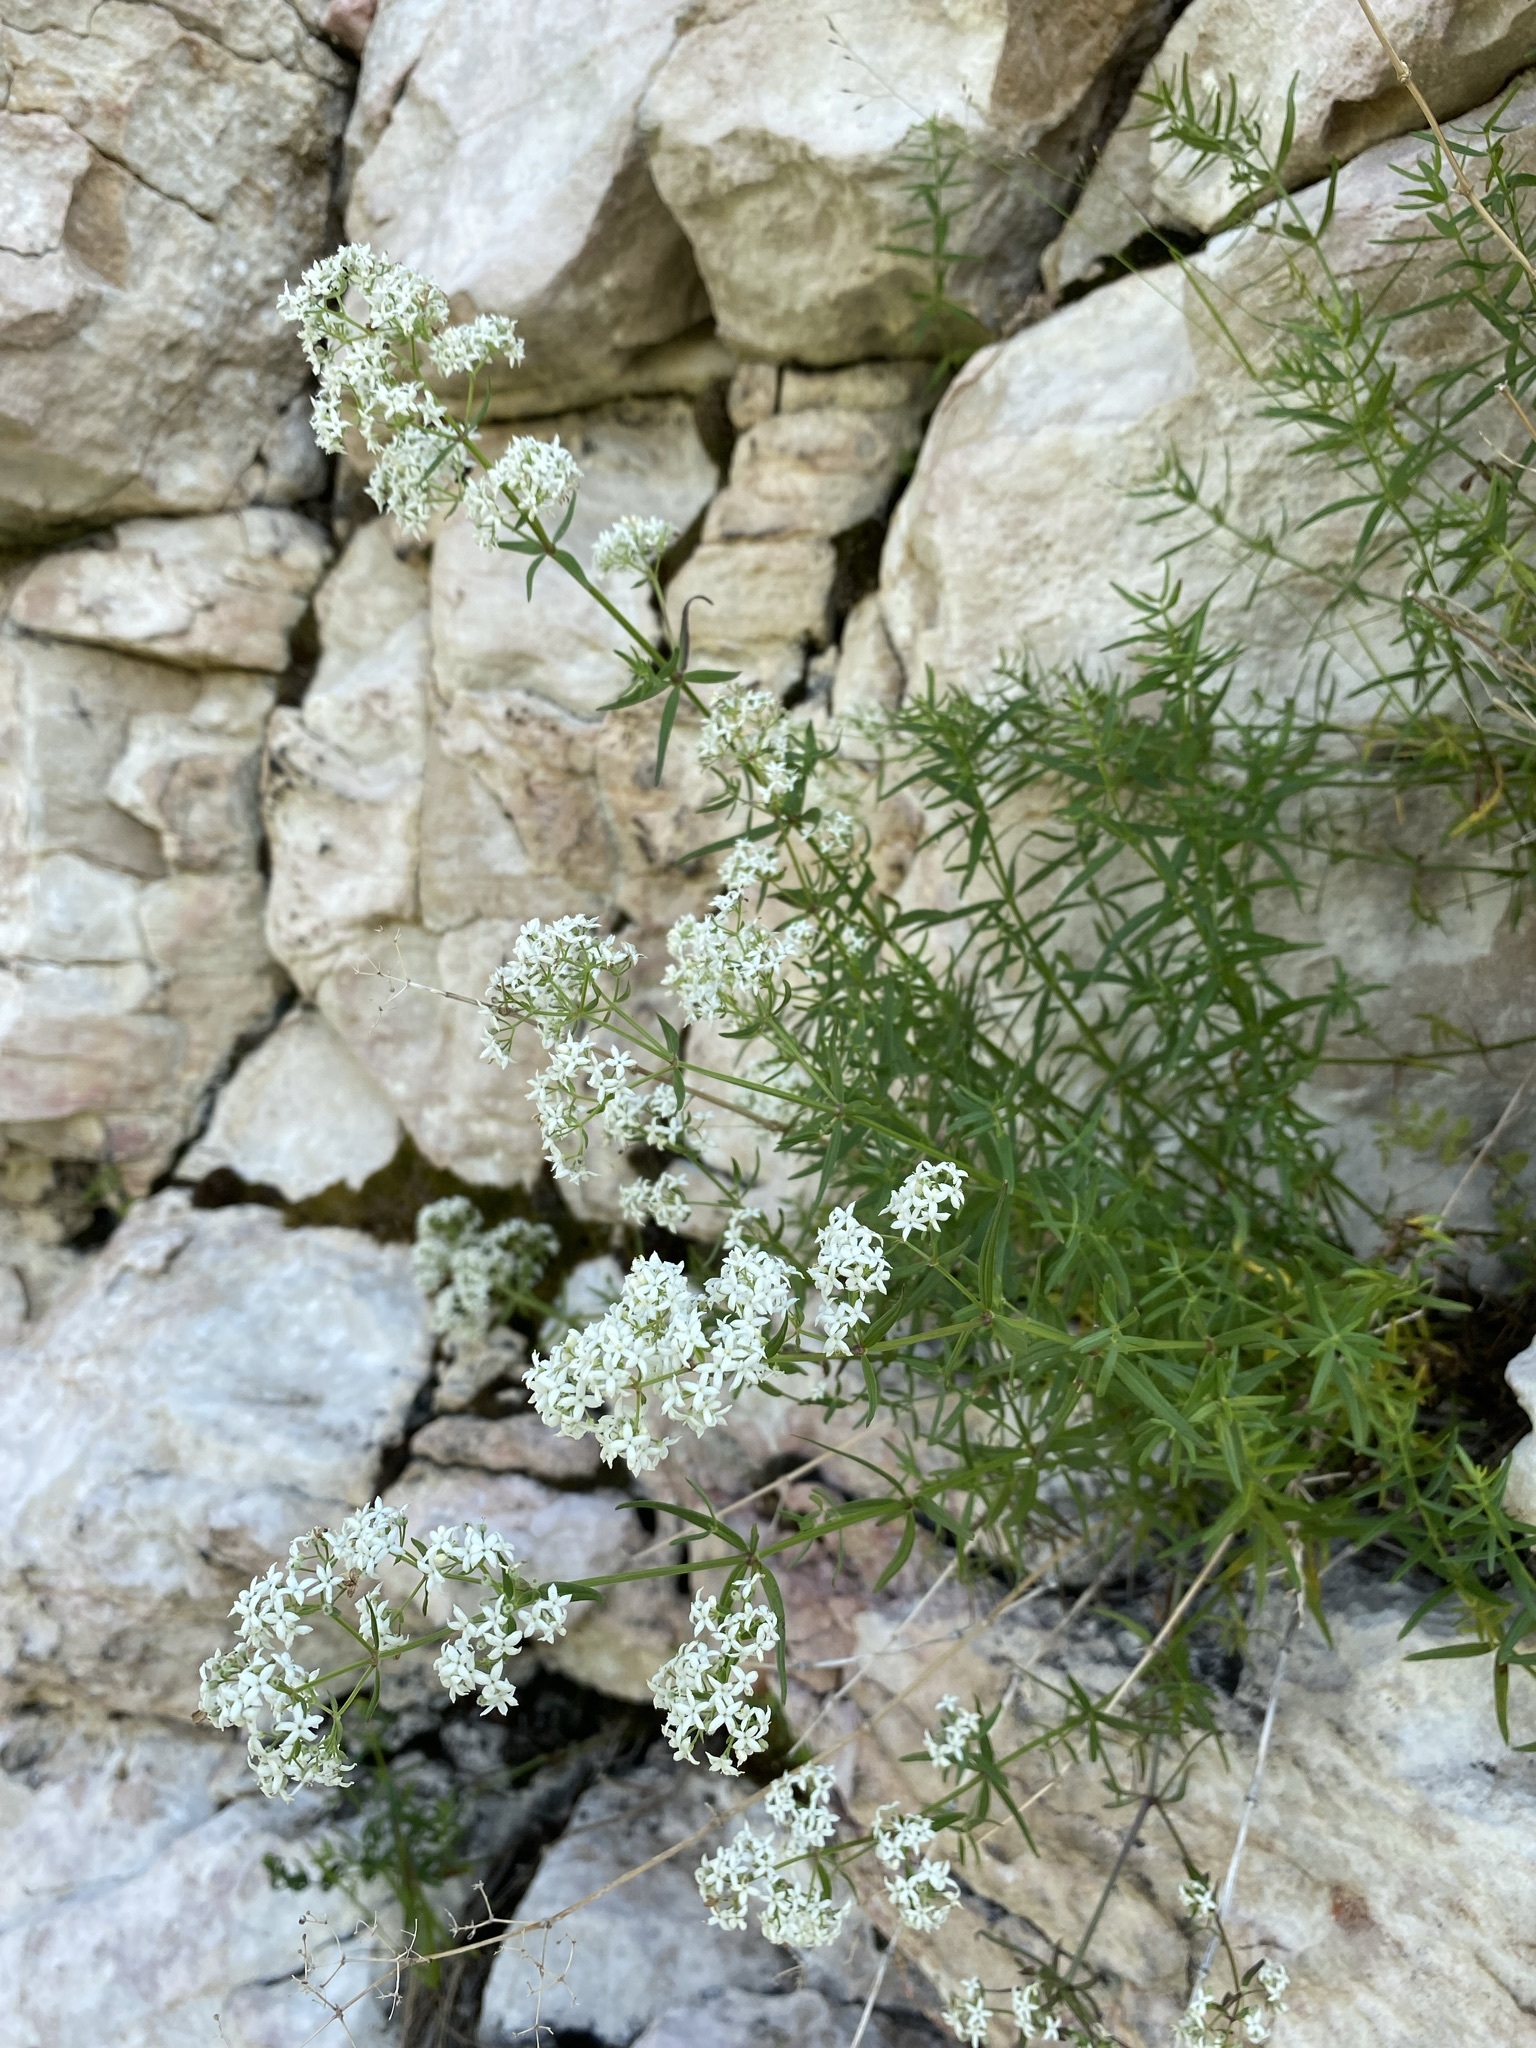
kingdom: Plantae
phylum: Tracheophyta
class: Magnoliopsida
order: Gentianales
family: Rubiaceae
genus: Galium
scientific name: Galium boreale
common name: Northern bedstraw
